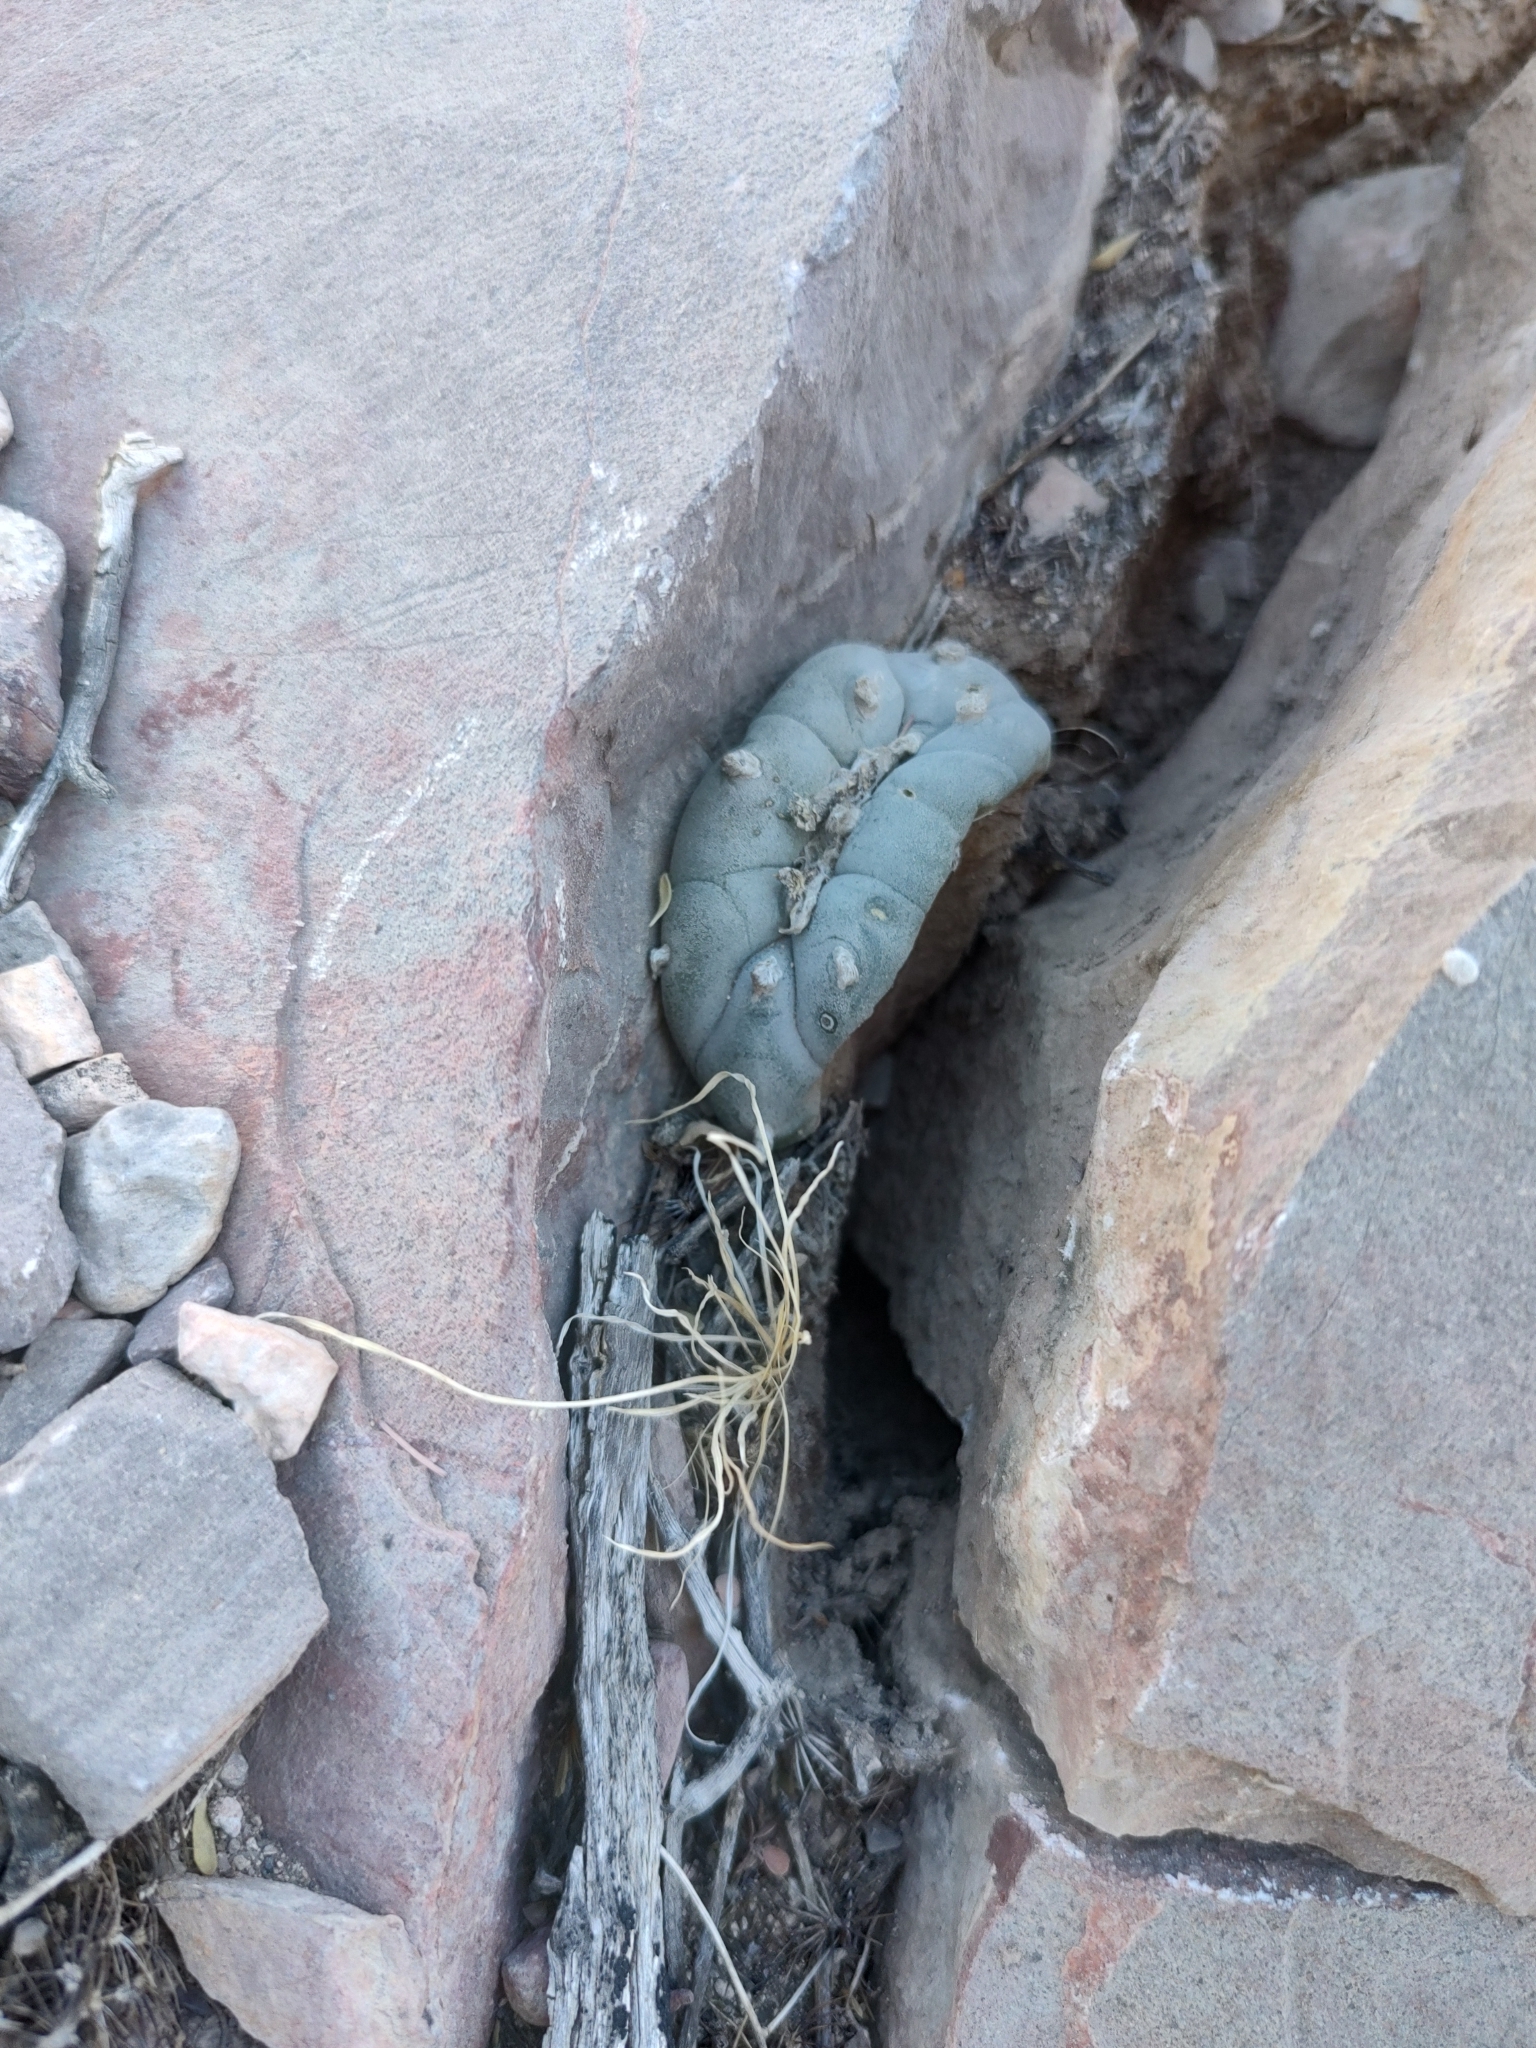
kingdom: Plantae
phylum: Tracheophyta
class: Magnoliopsida
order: Caryophyllales
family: Cactaceae
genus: Lophophora
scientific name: Lophophora williamsii
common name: Indian-dope
